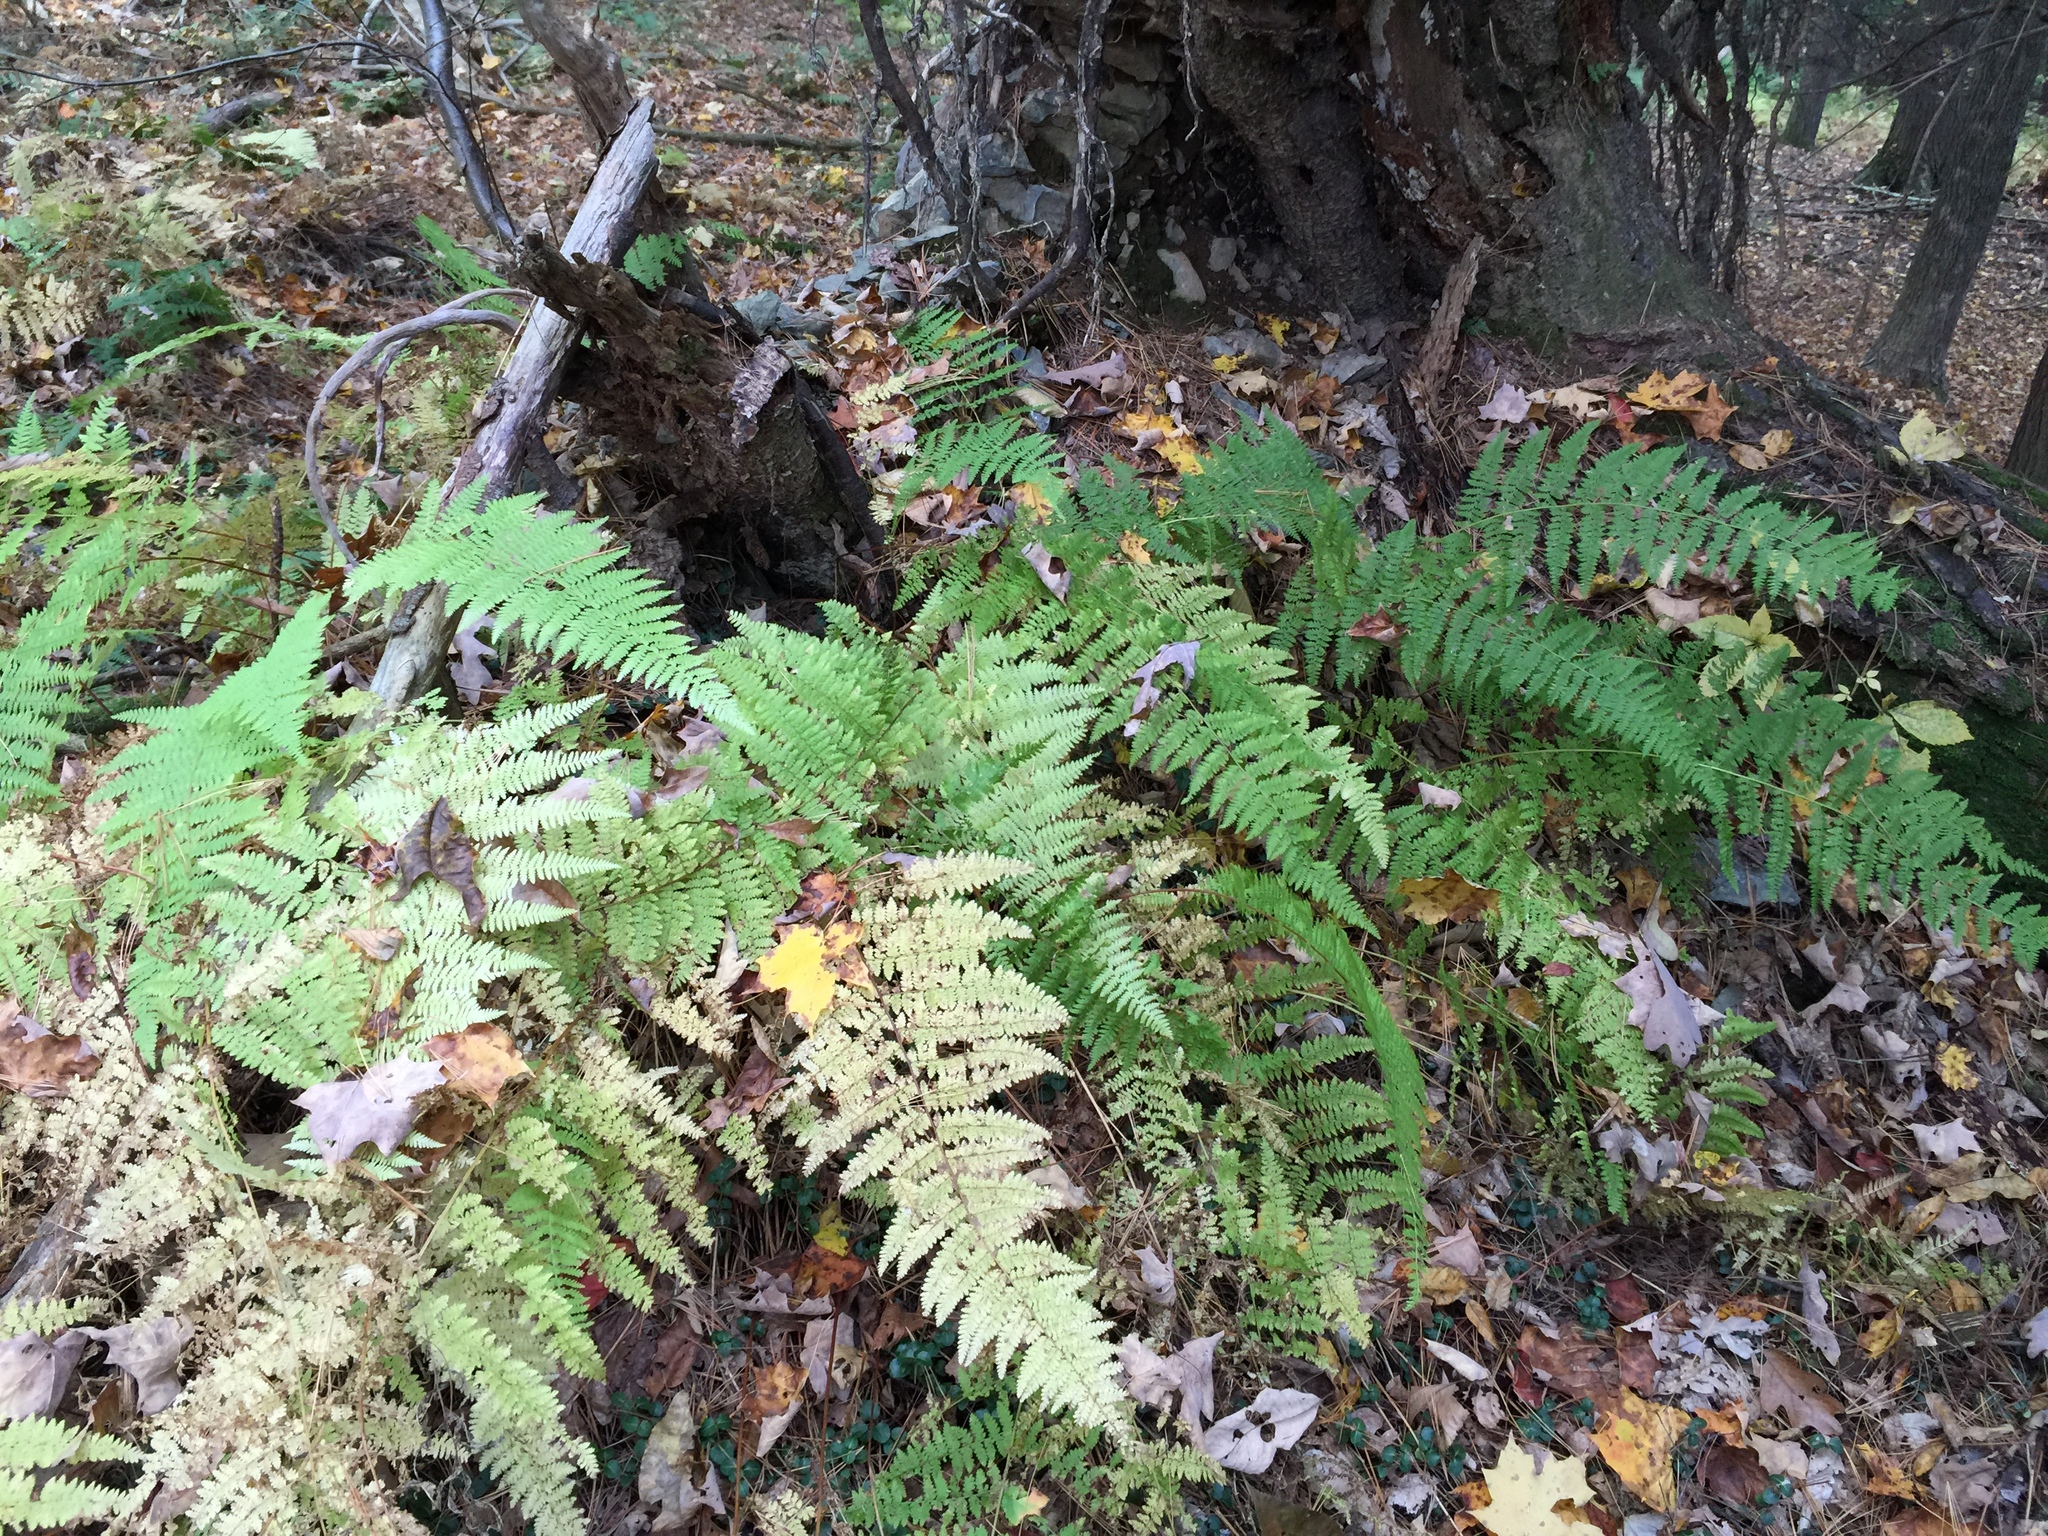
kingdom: Plantae
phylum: Tracheophyta
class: Polypodiopsida
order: Polypodiales
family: Dennstaedtiaceae
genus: Sitobolium
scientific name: Sitobolium punctilobum
